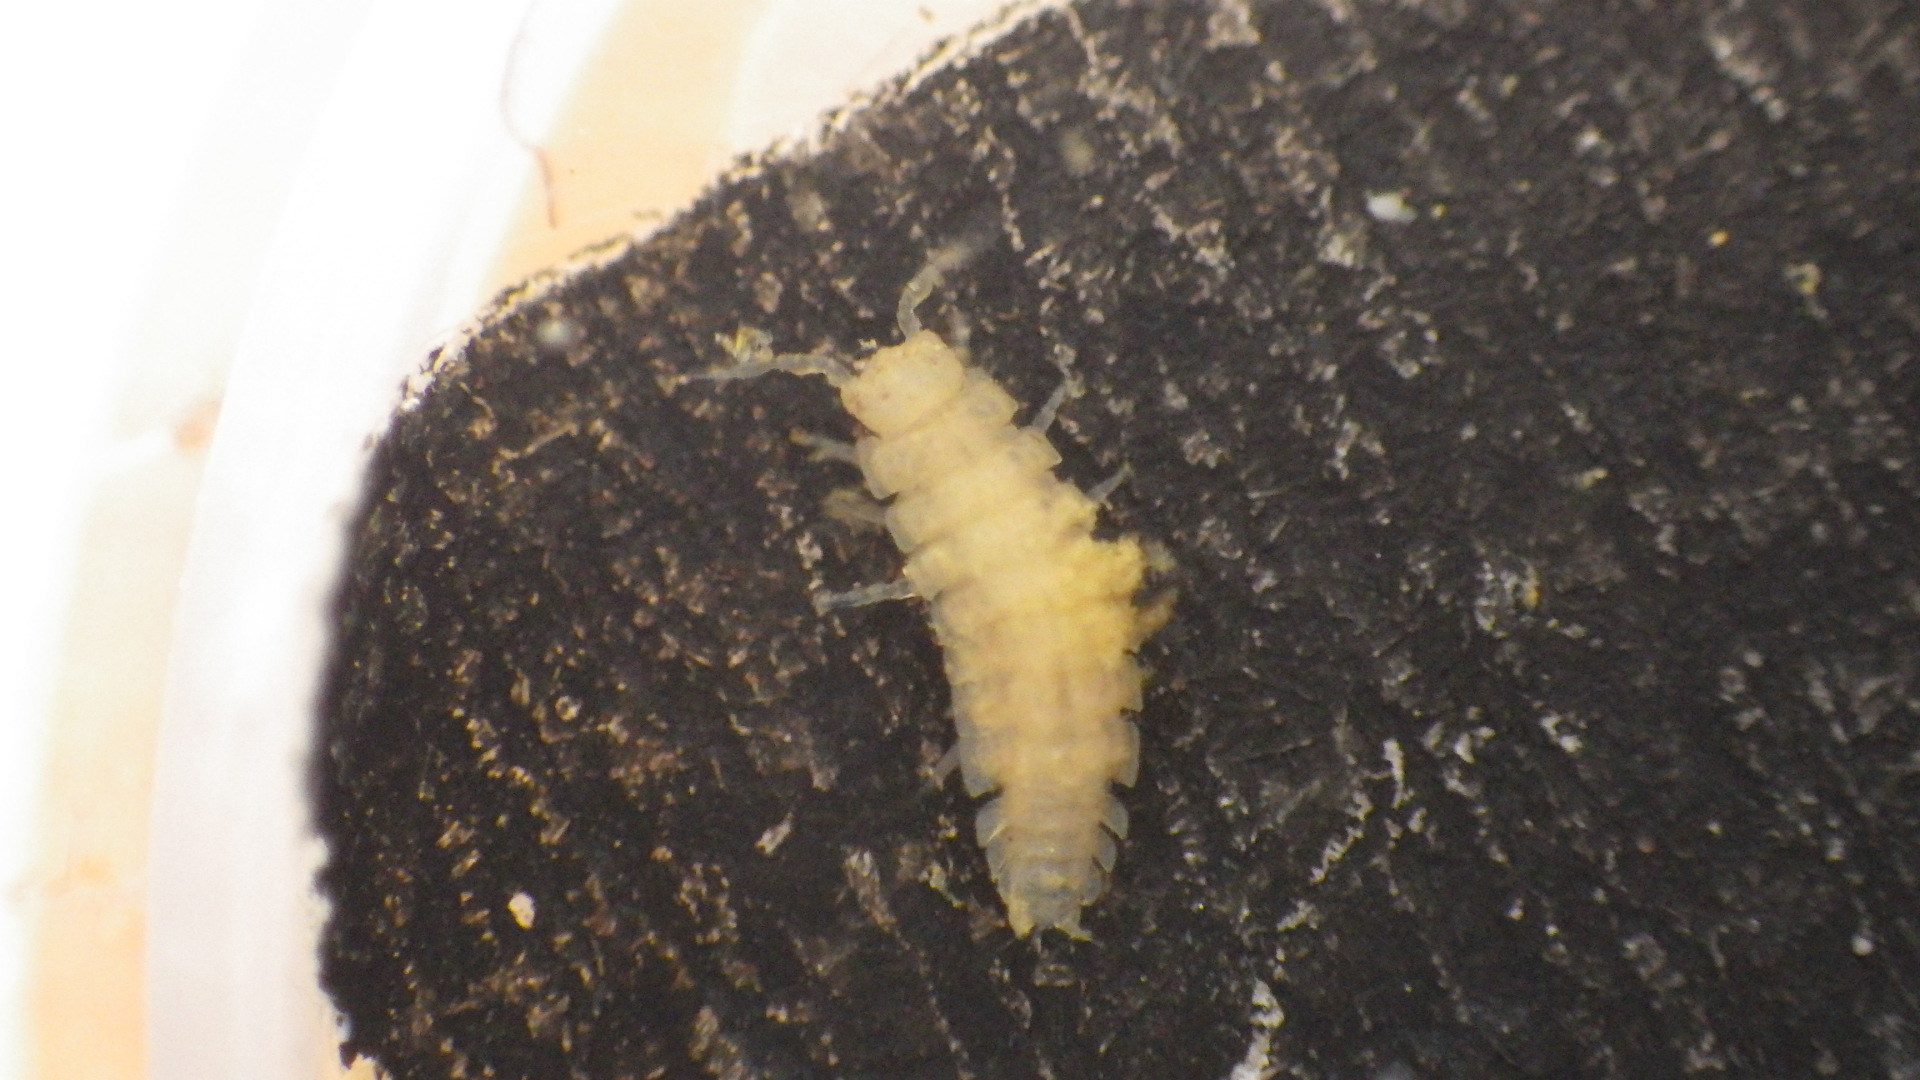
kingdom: Animalia
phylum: Arthropoda
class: Malacostraca
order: Isopoda
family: Trichoniscidae
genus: Haplophthalmus
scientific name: Haplophthalmus danicus
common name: Pillbug
